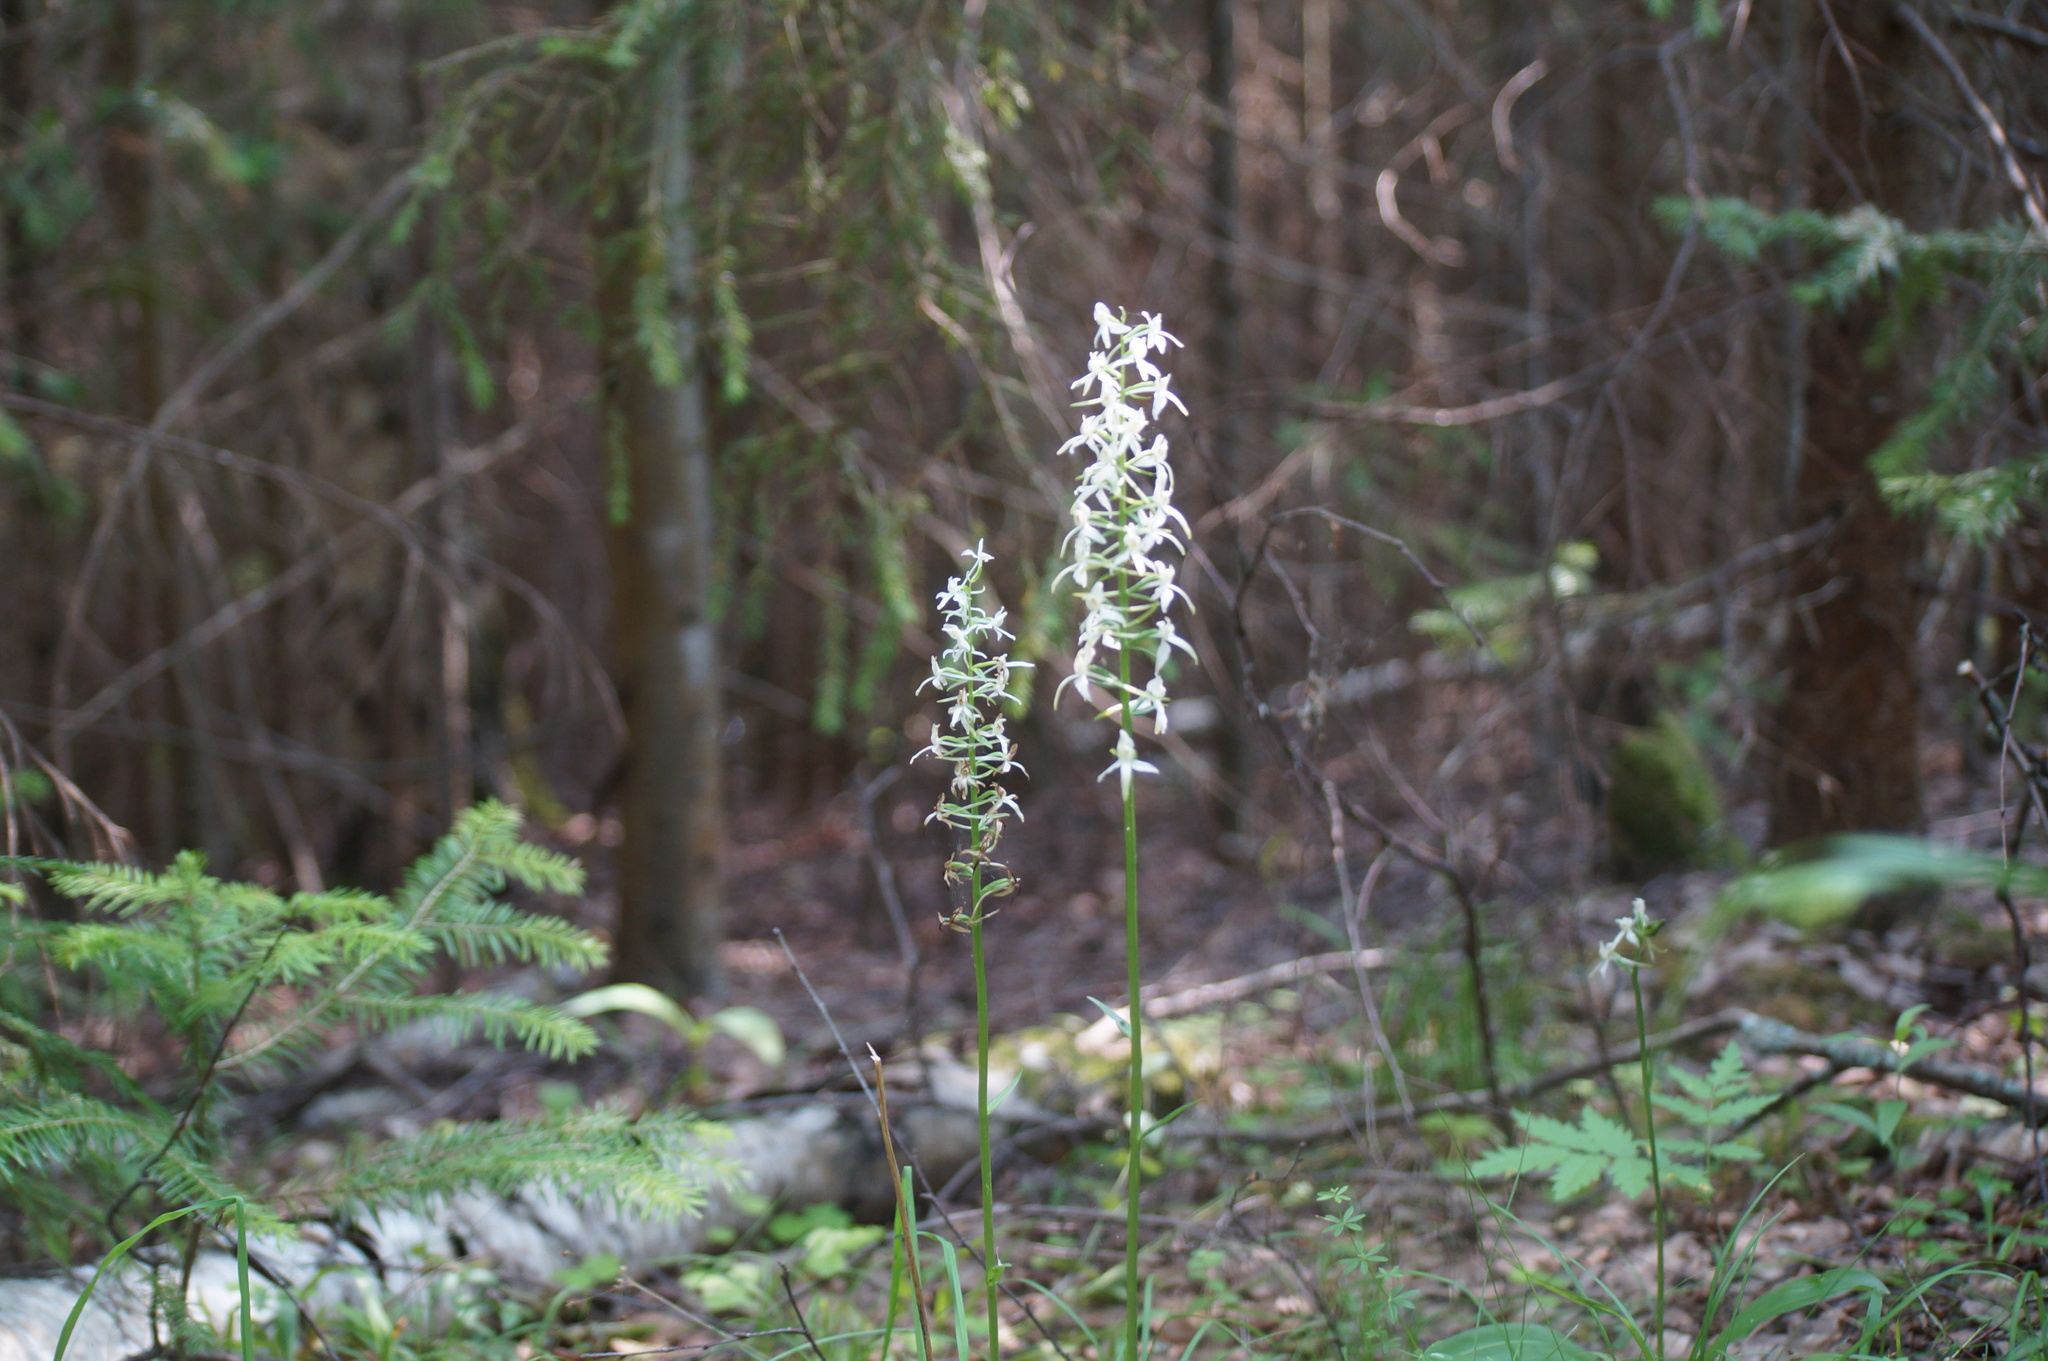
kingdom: Plantae
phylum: Tracheophyta
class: Liliopsida
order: Asparagales
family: Orchidaceae
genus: Platanthera
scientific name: Platanthera bifolia
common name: Lesser butterfly-orchid
